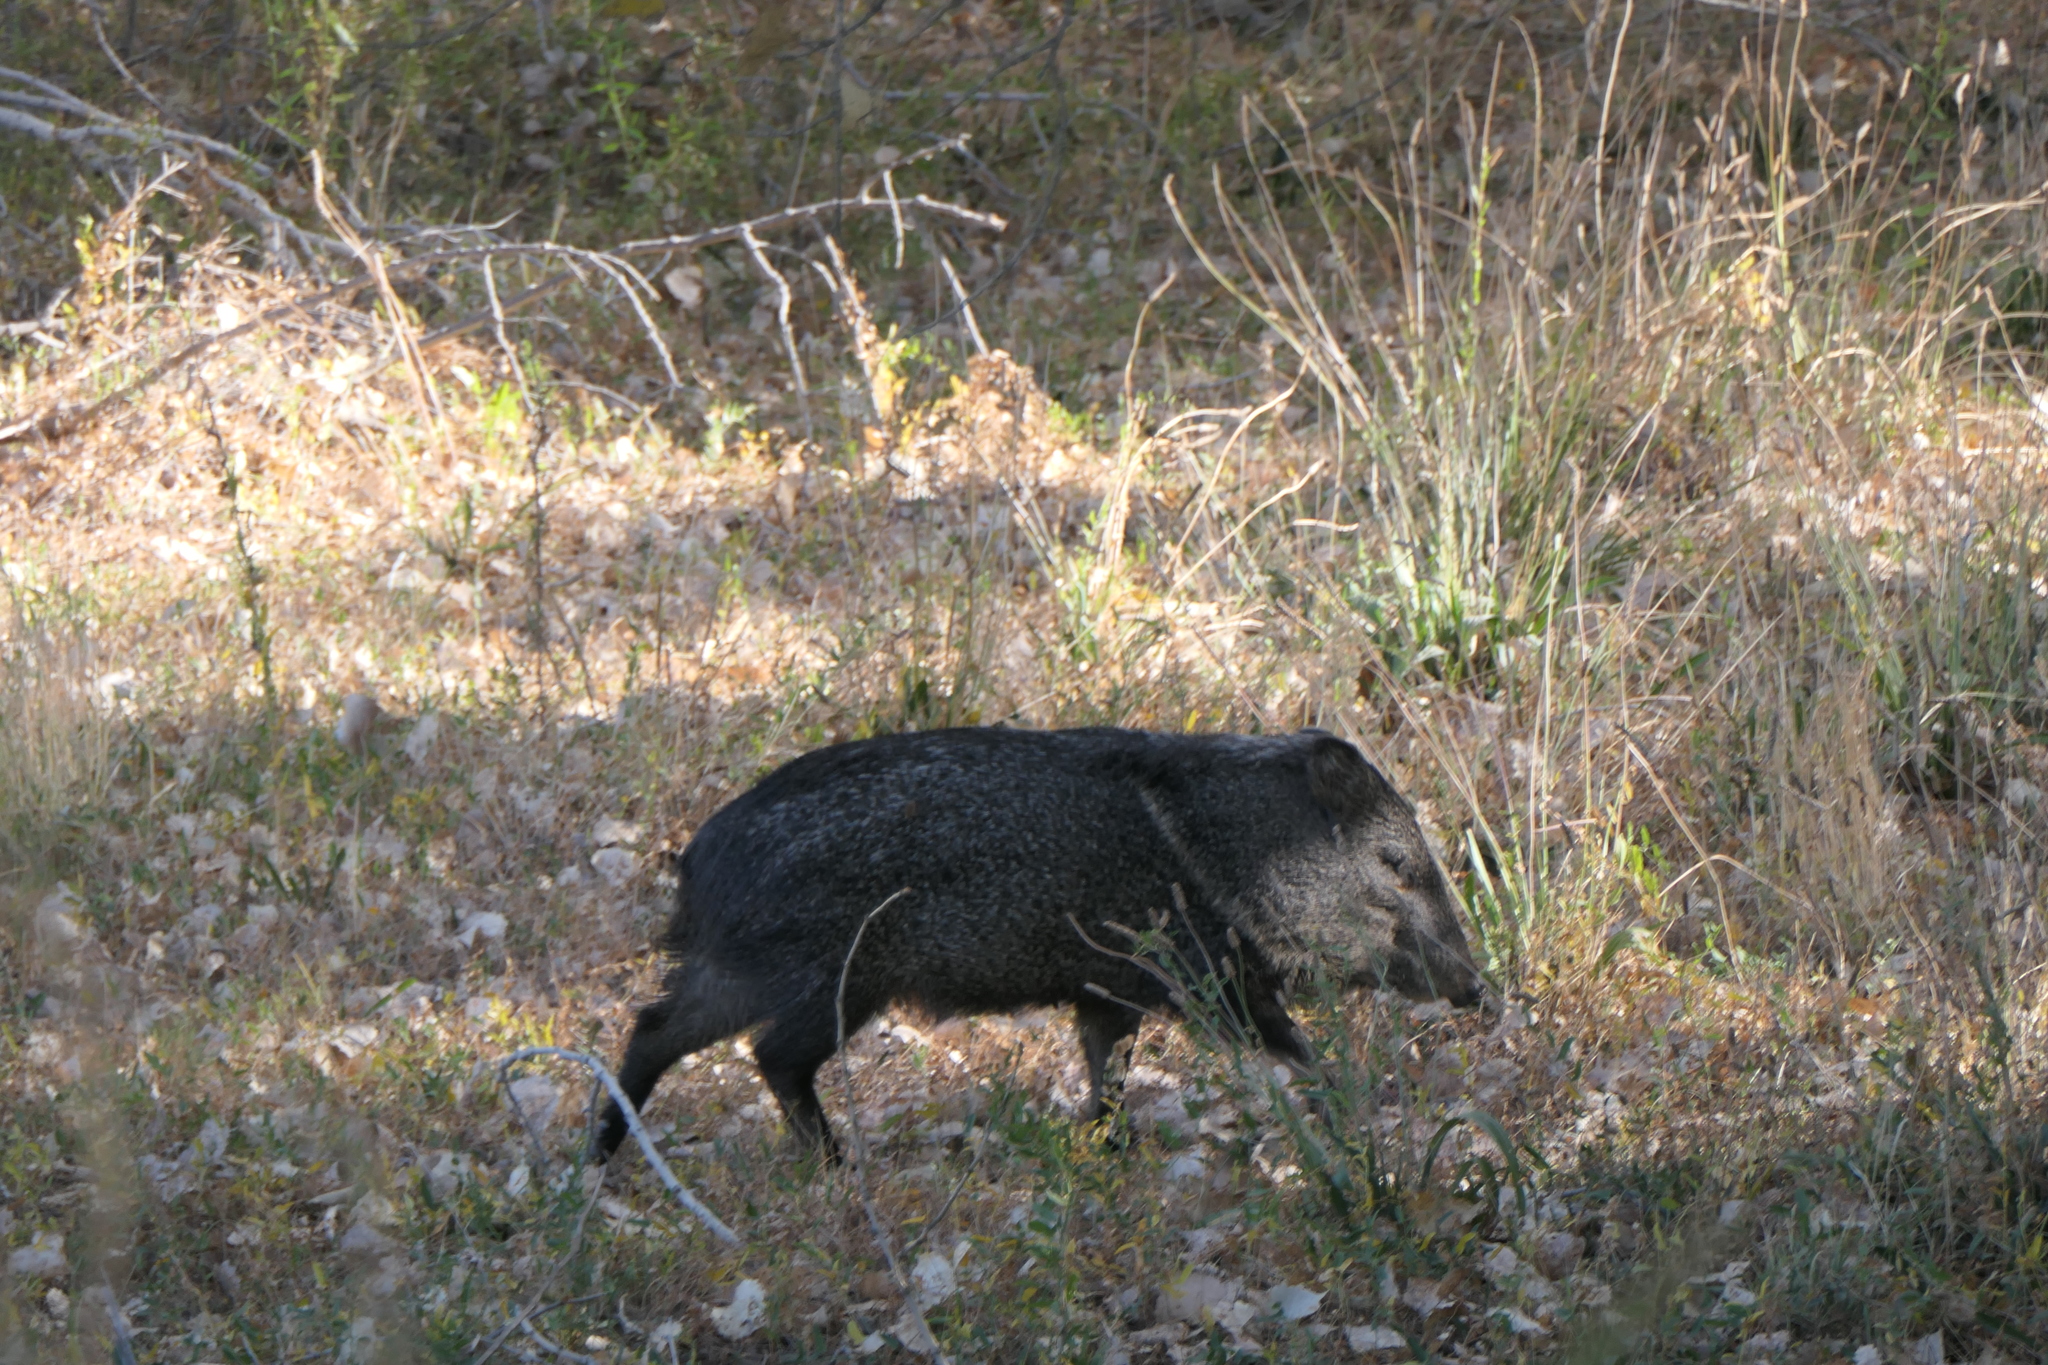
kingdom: Animalia
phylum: Chordata
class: Mammalia
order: Artiodactyla
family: Tayassuidae
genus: Pecari
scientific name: Pecari tajacu
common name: Collared peccary
